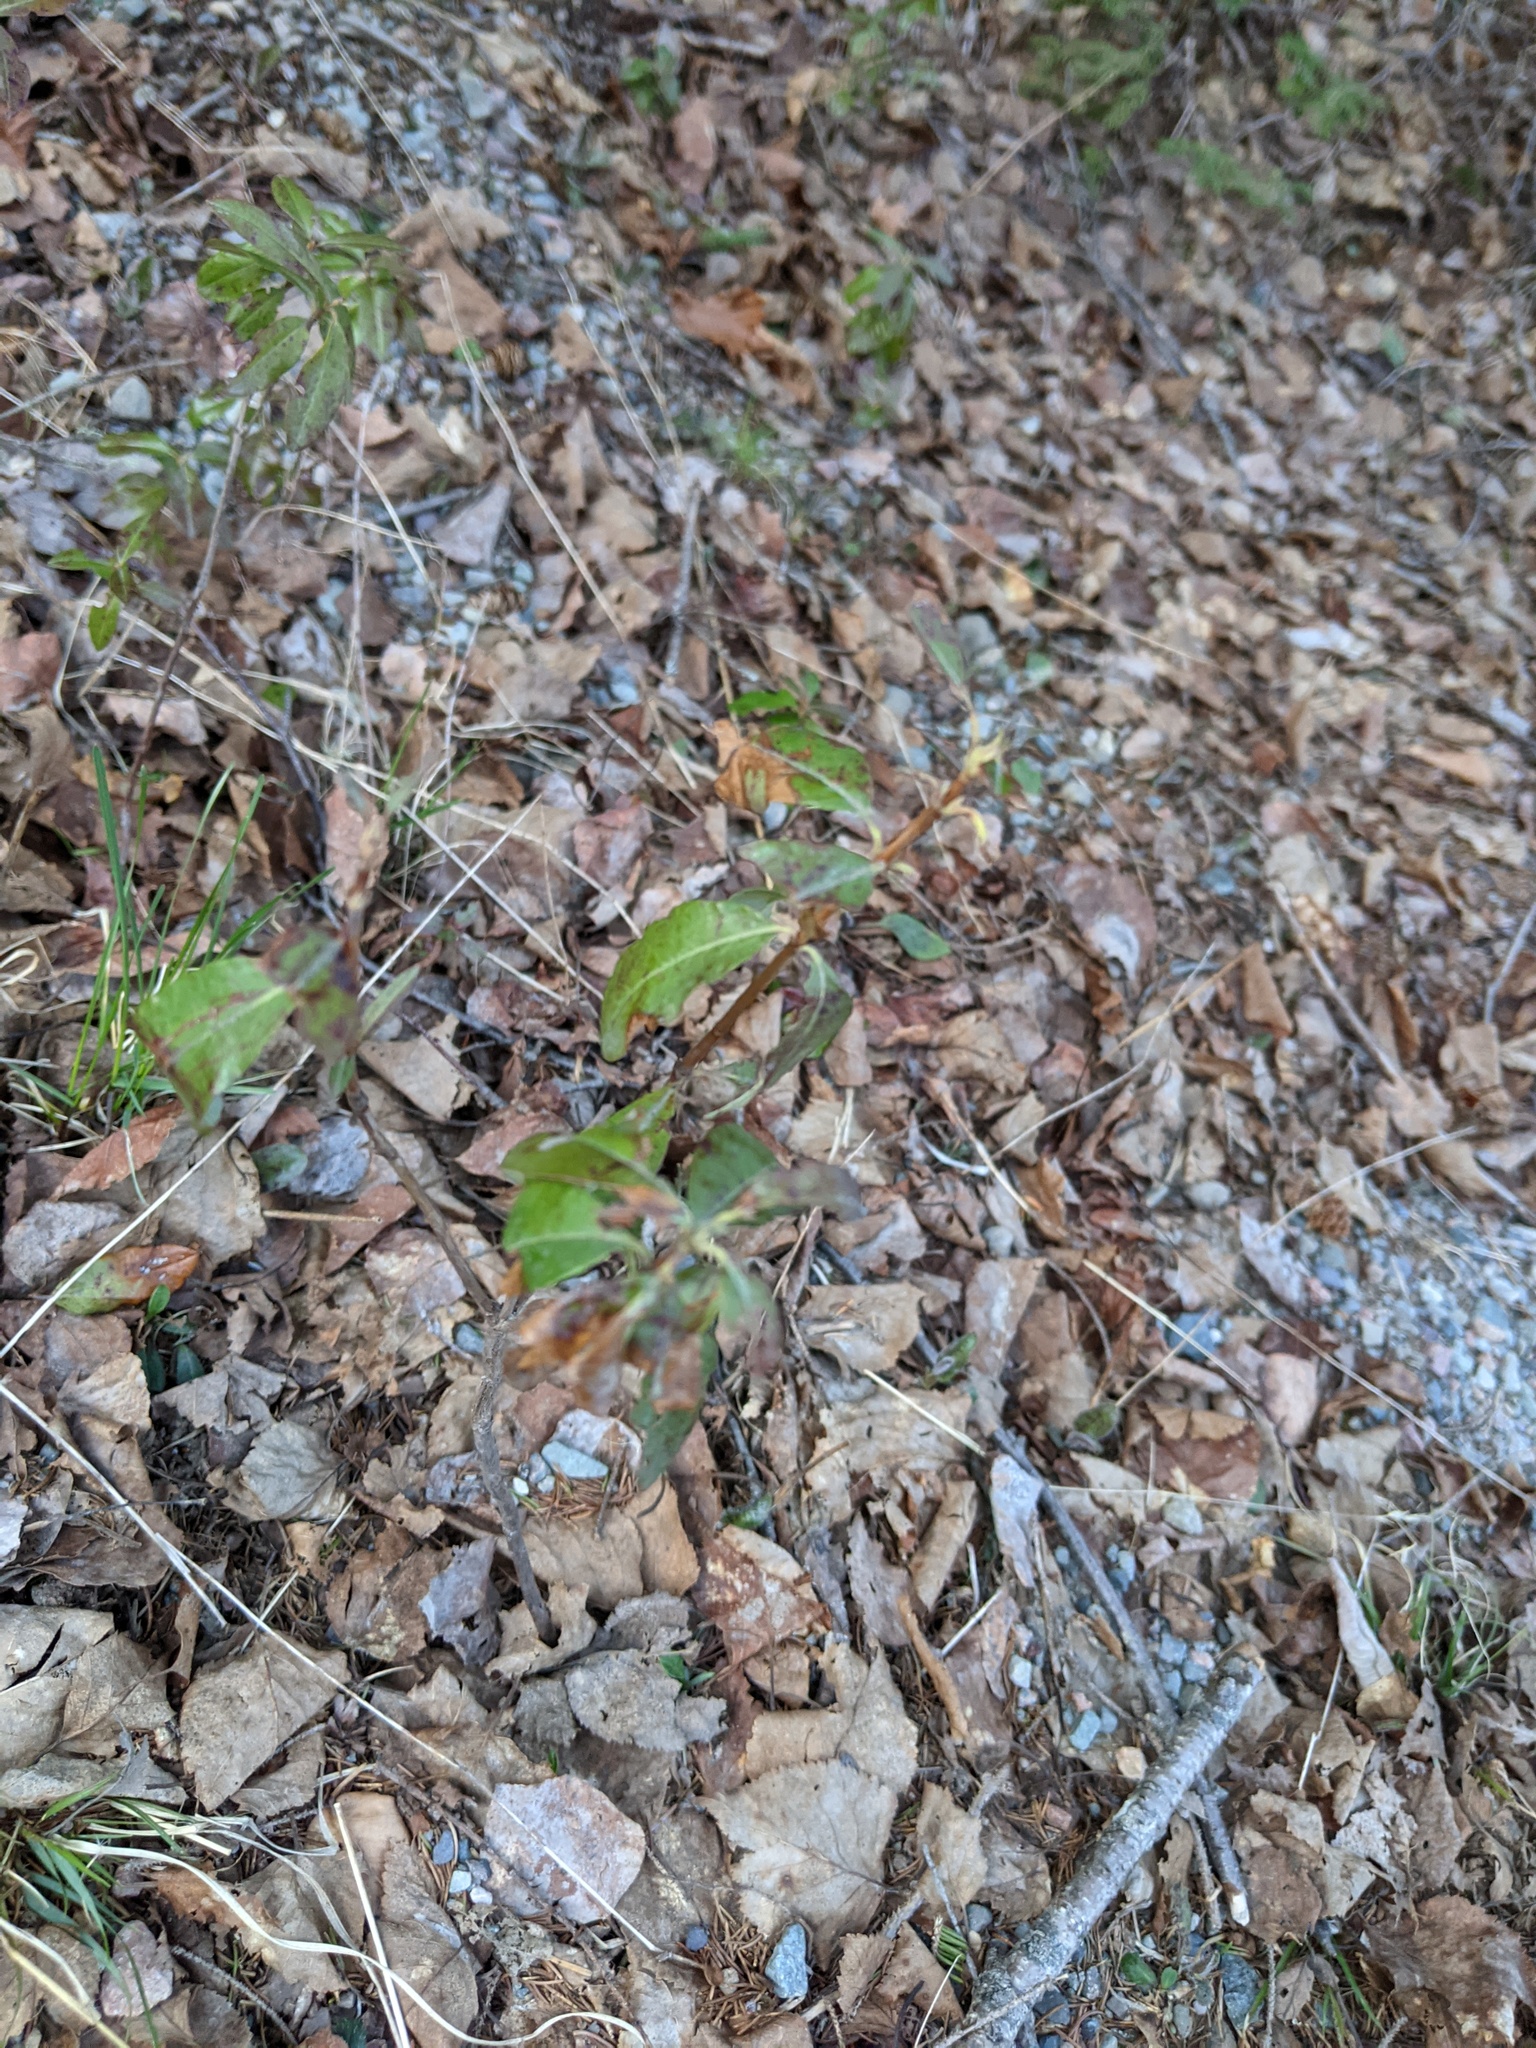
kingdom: Plantae
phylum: Tracheophyta
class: Magnoliopsida
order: Ericales
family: Ericaceae
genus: Kalmia
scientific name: Kalmia angustifolia
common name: Sheep-laurel
